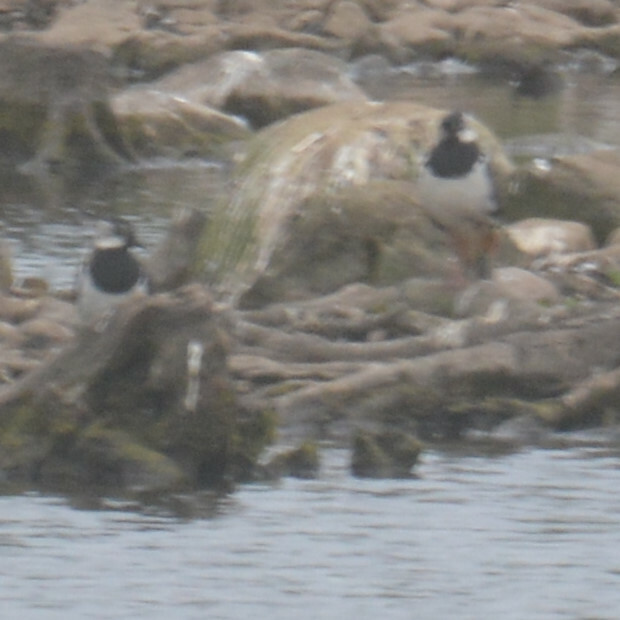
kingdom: Animalia
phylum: Chordata
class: Aves
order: Charadriiformes
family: Charadriidae
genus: Vanellus
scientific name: Vanellus vanellus
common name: Northern lapwing
